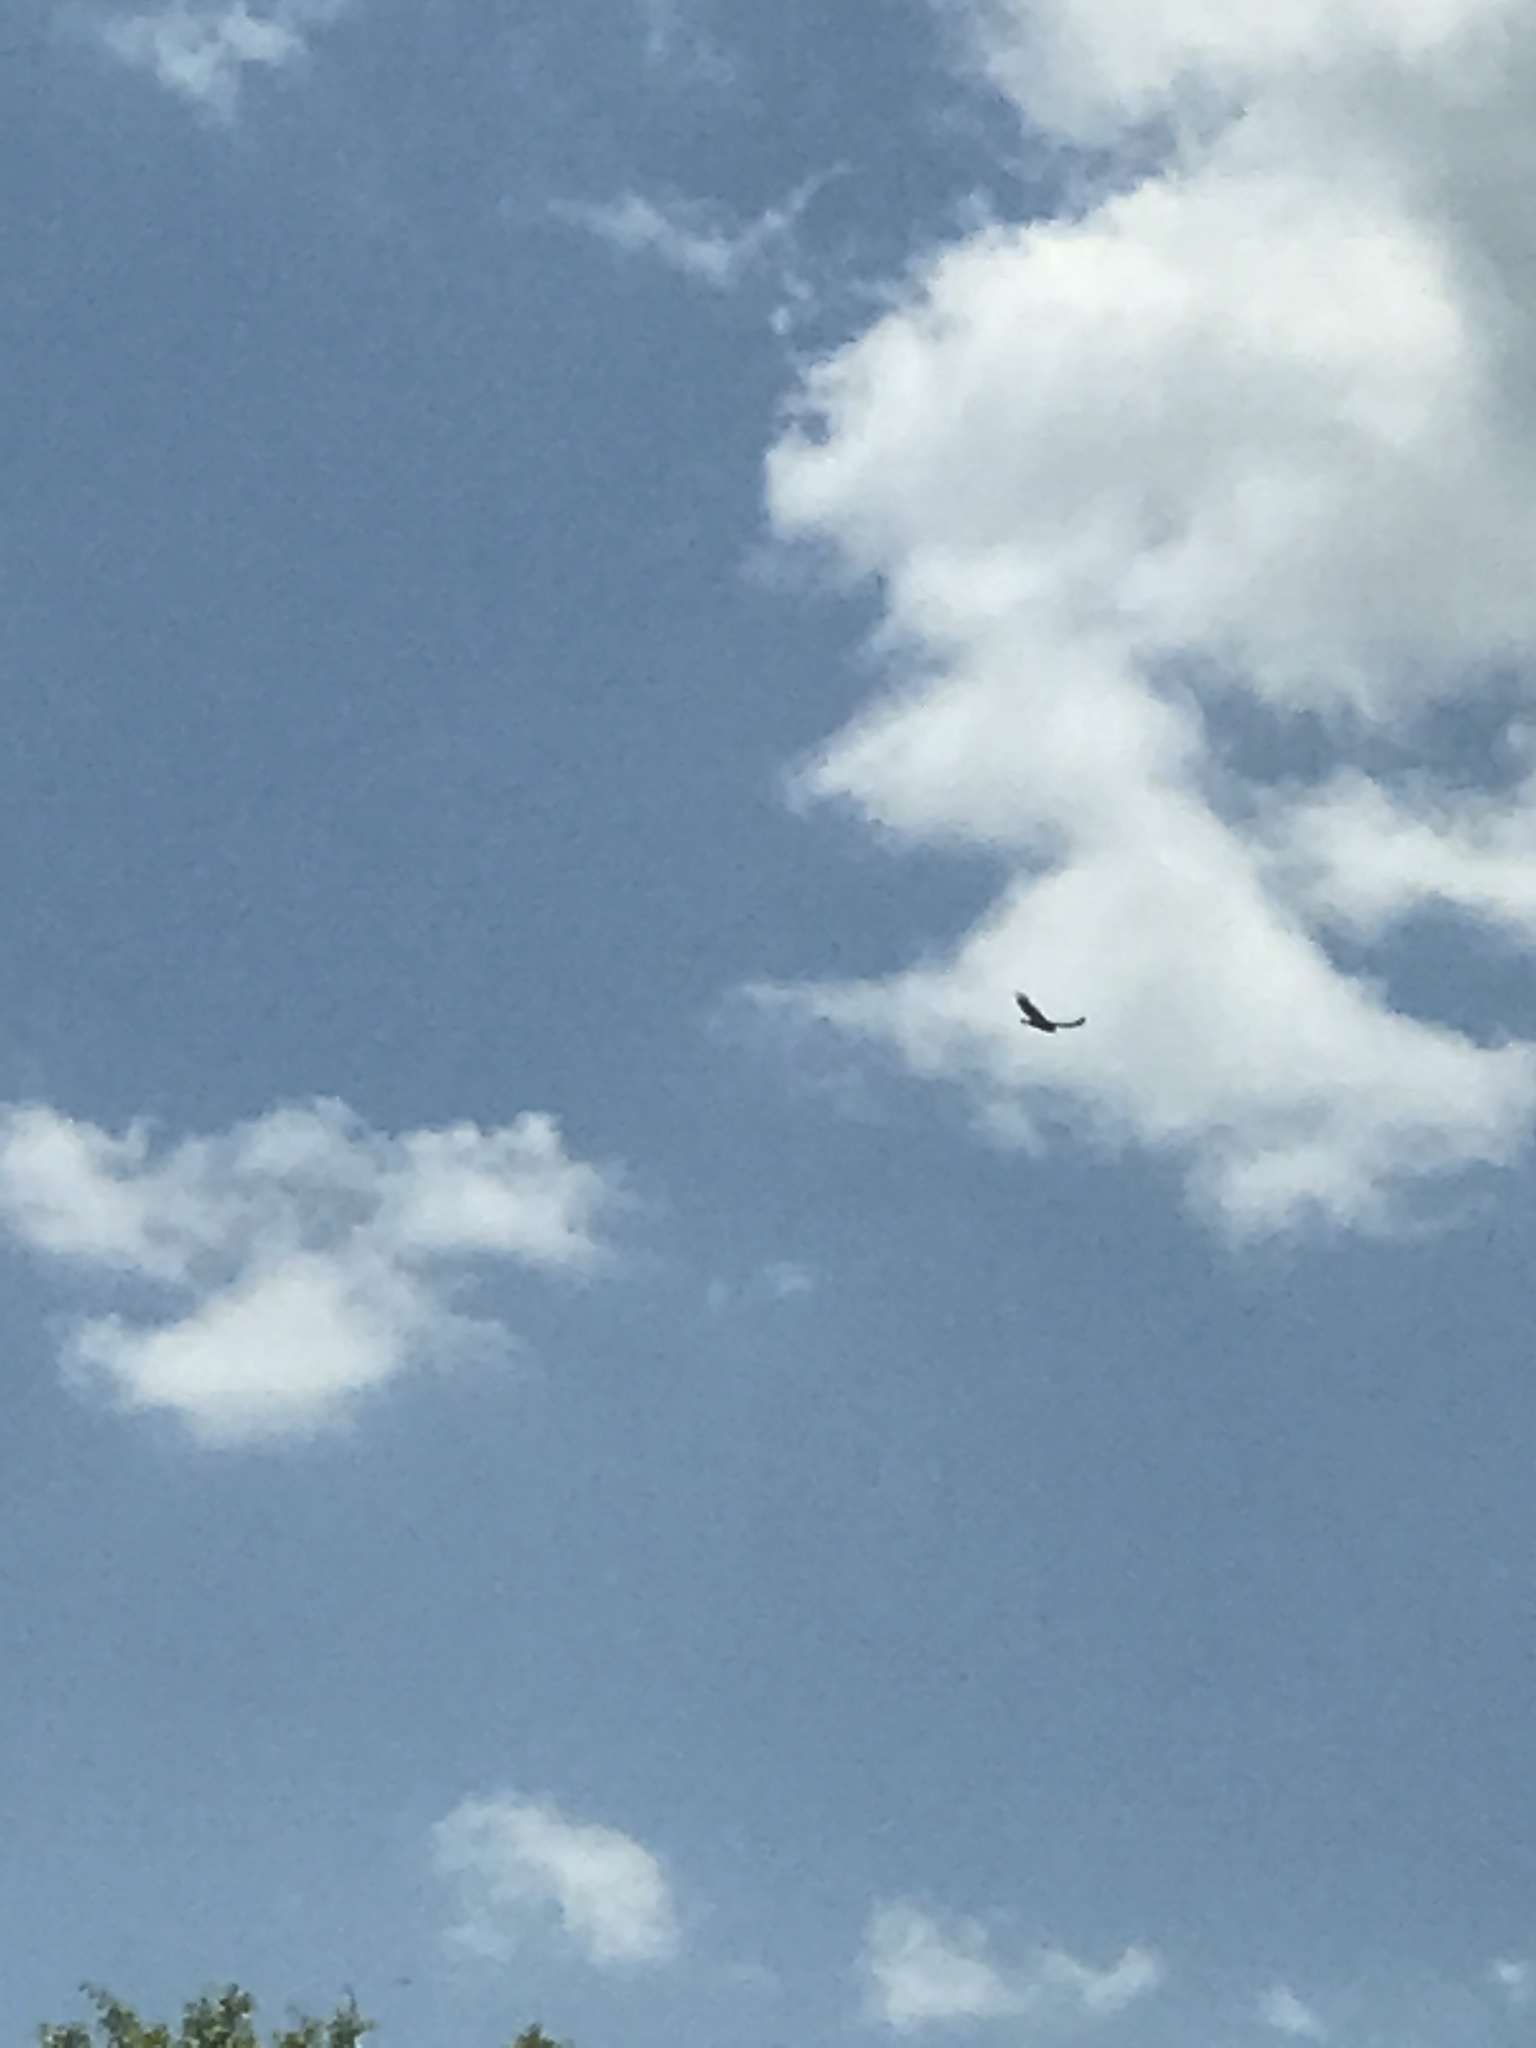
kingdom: Animalia
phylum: Chordata
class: Aves
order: Accipitriformes
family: Cathartidae
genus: Cathartes
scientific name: Cathartes aura
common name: Turkey vulture
